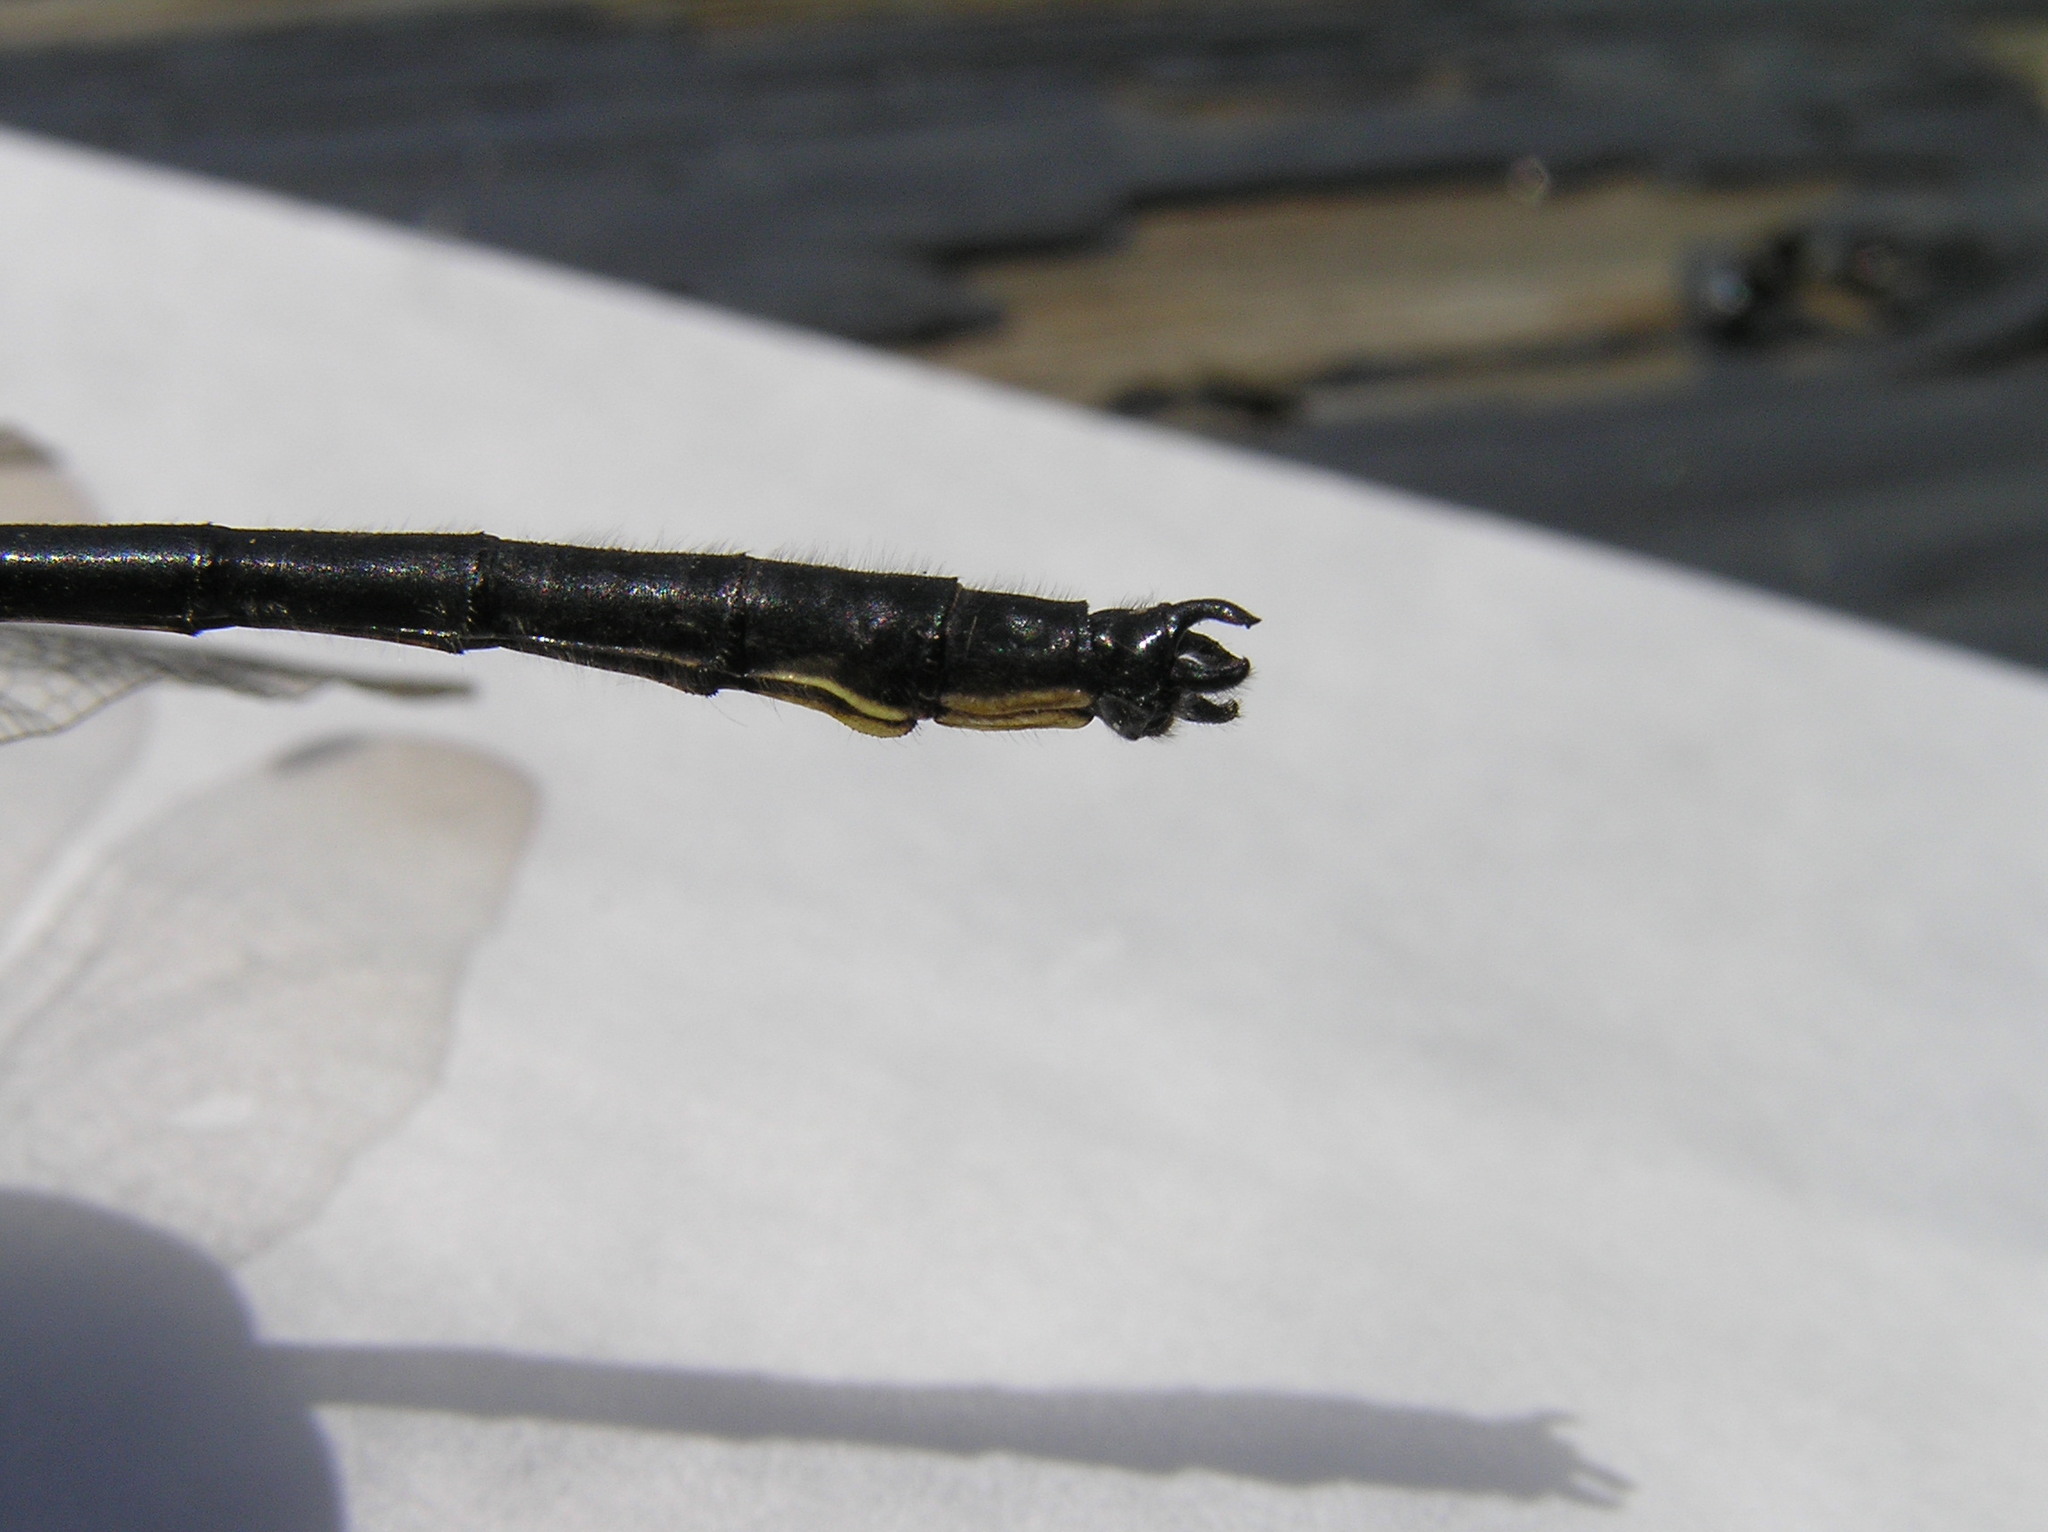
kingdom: Animalia
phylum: Arthropoda
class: Insecta
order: Odonata
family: Gomphidae
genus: Lanthus
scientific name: Lanthus vernalis
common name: Southern pygmy clubtail
